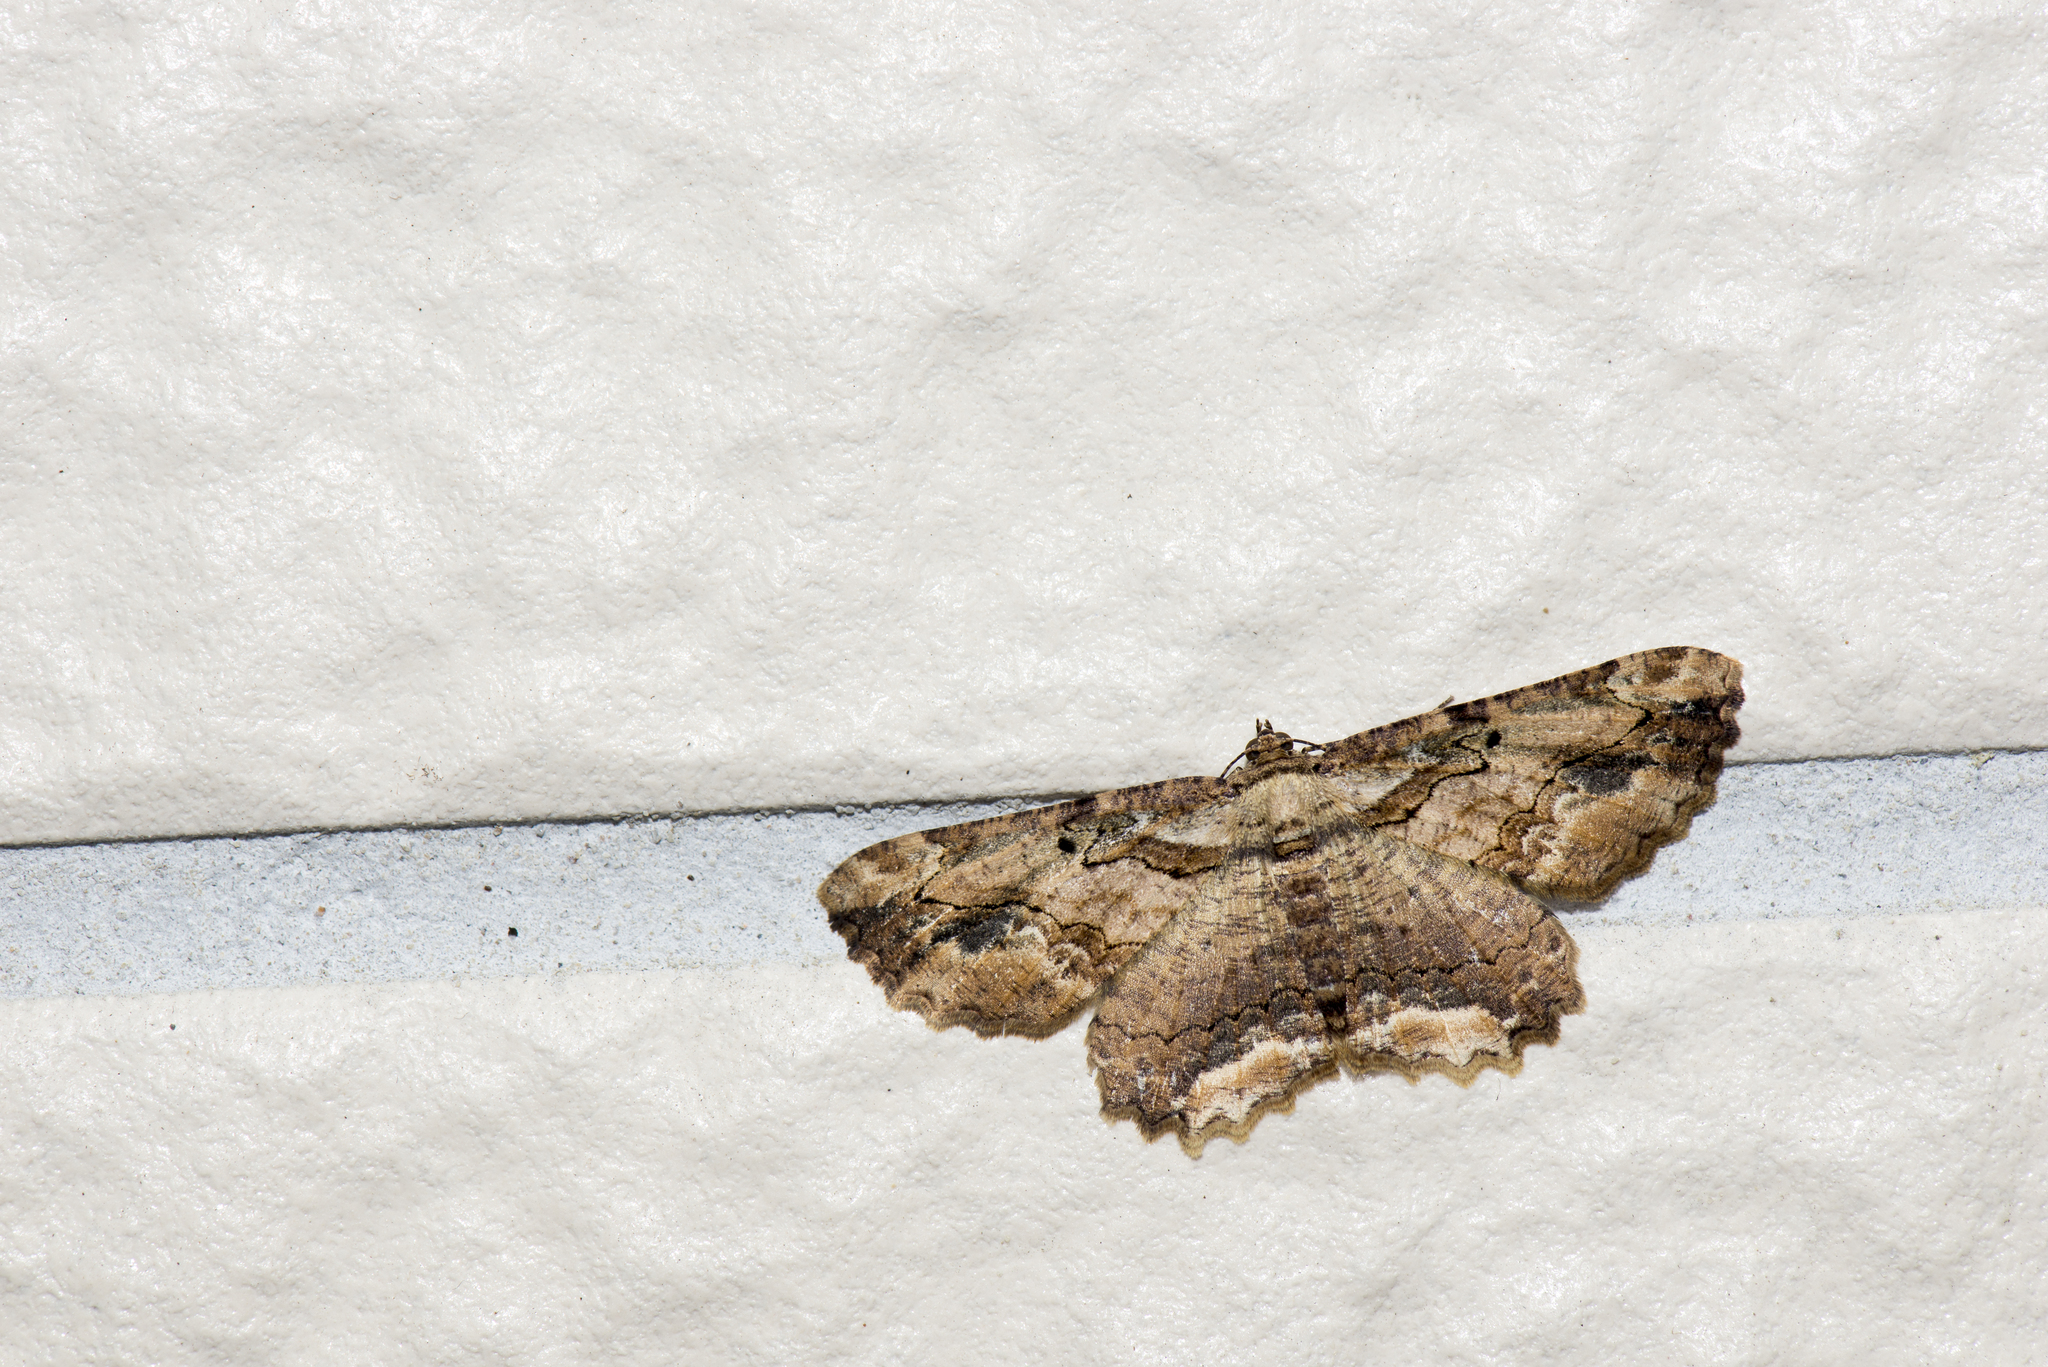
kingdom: Animalia
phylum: Arthropoda
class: Insecta
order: Lepidoptera
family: Geometridae
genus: Menophra
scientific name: Menophra anaplagiata
